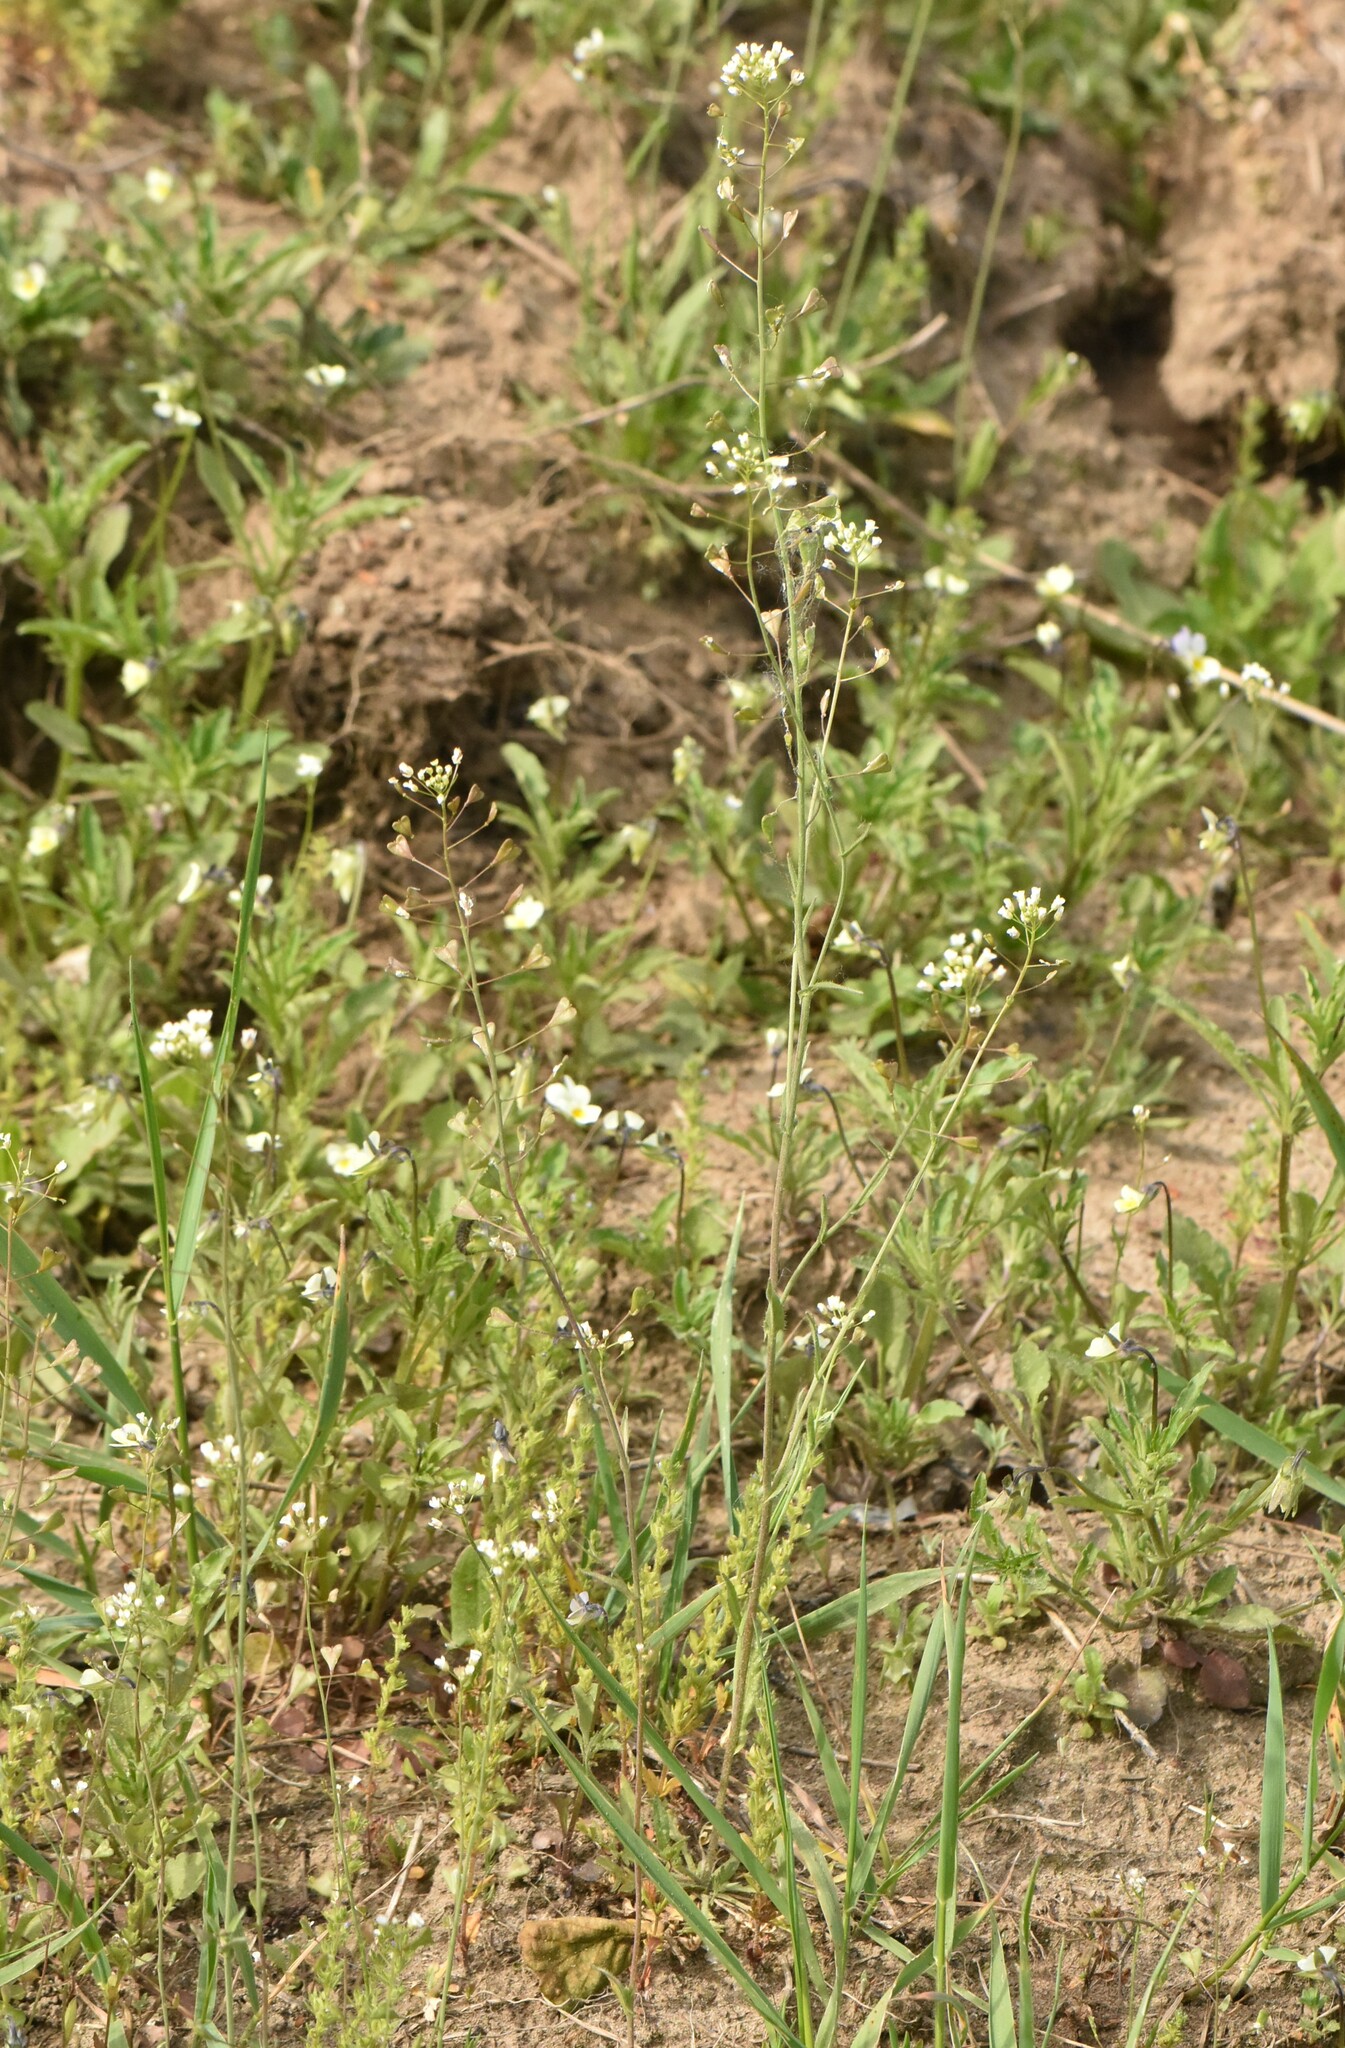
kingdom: Plantae
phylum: Tracheophyta
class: Magnoliopsida
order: Brassicales
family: Brassicaceae
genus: Capsella
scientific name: Capsella bursa-pastoris
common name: Shepherd's purse
